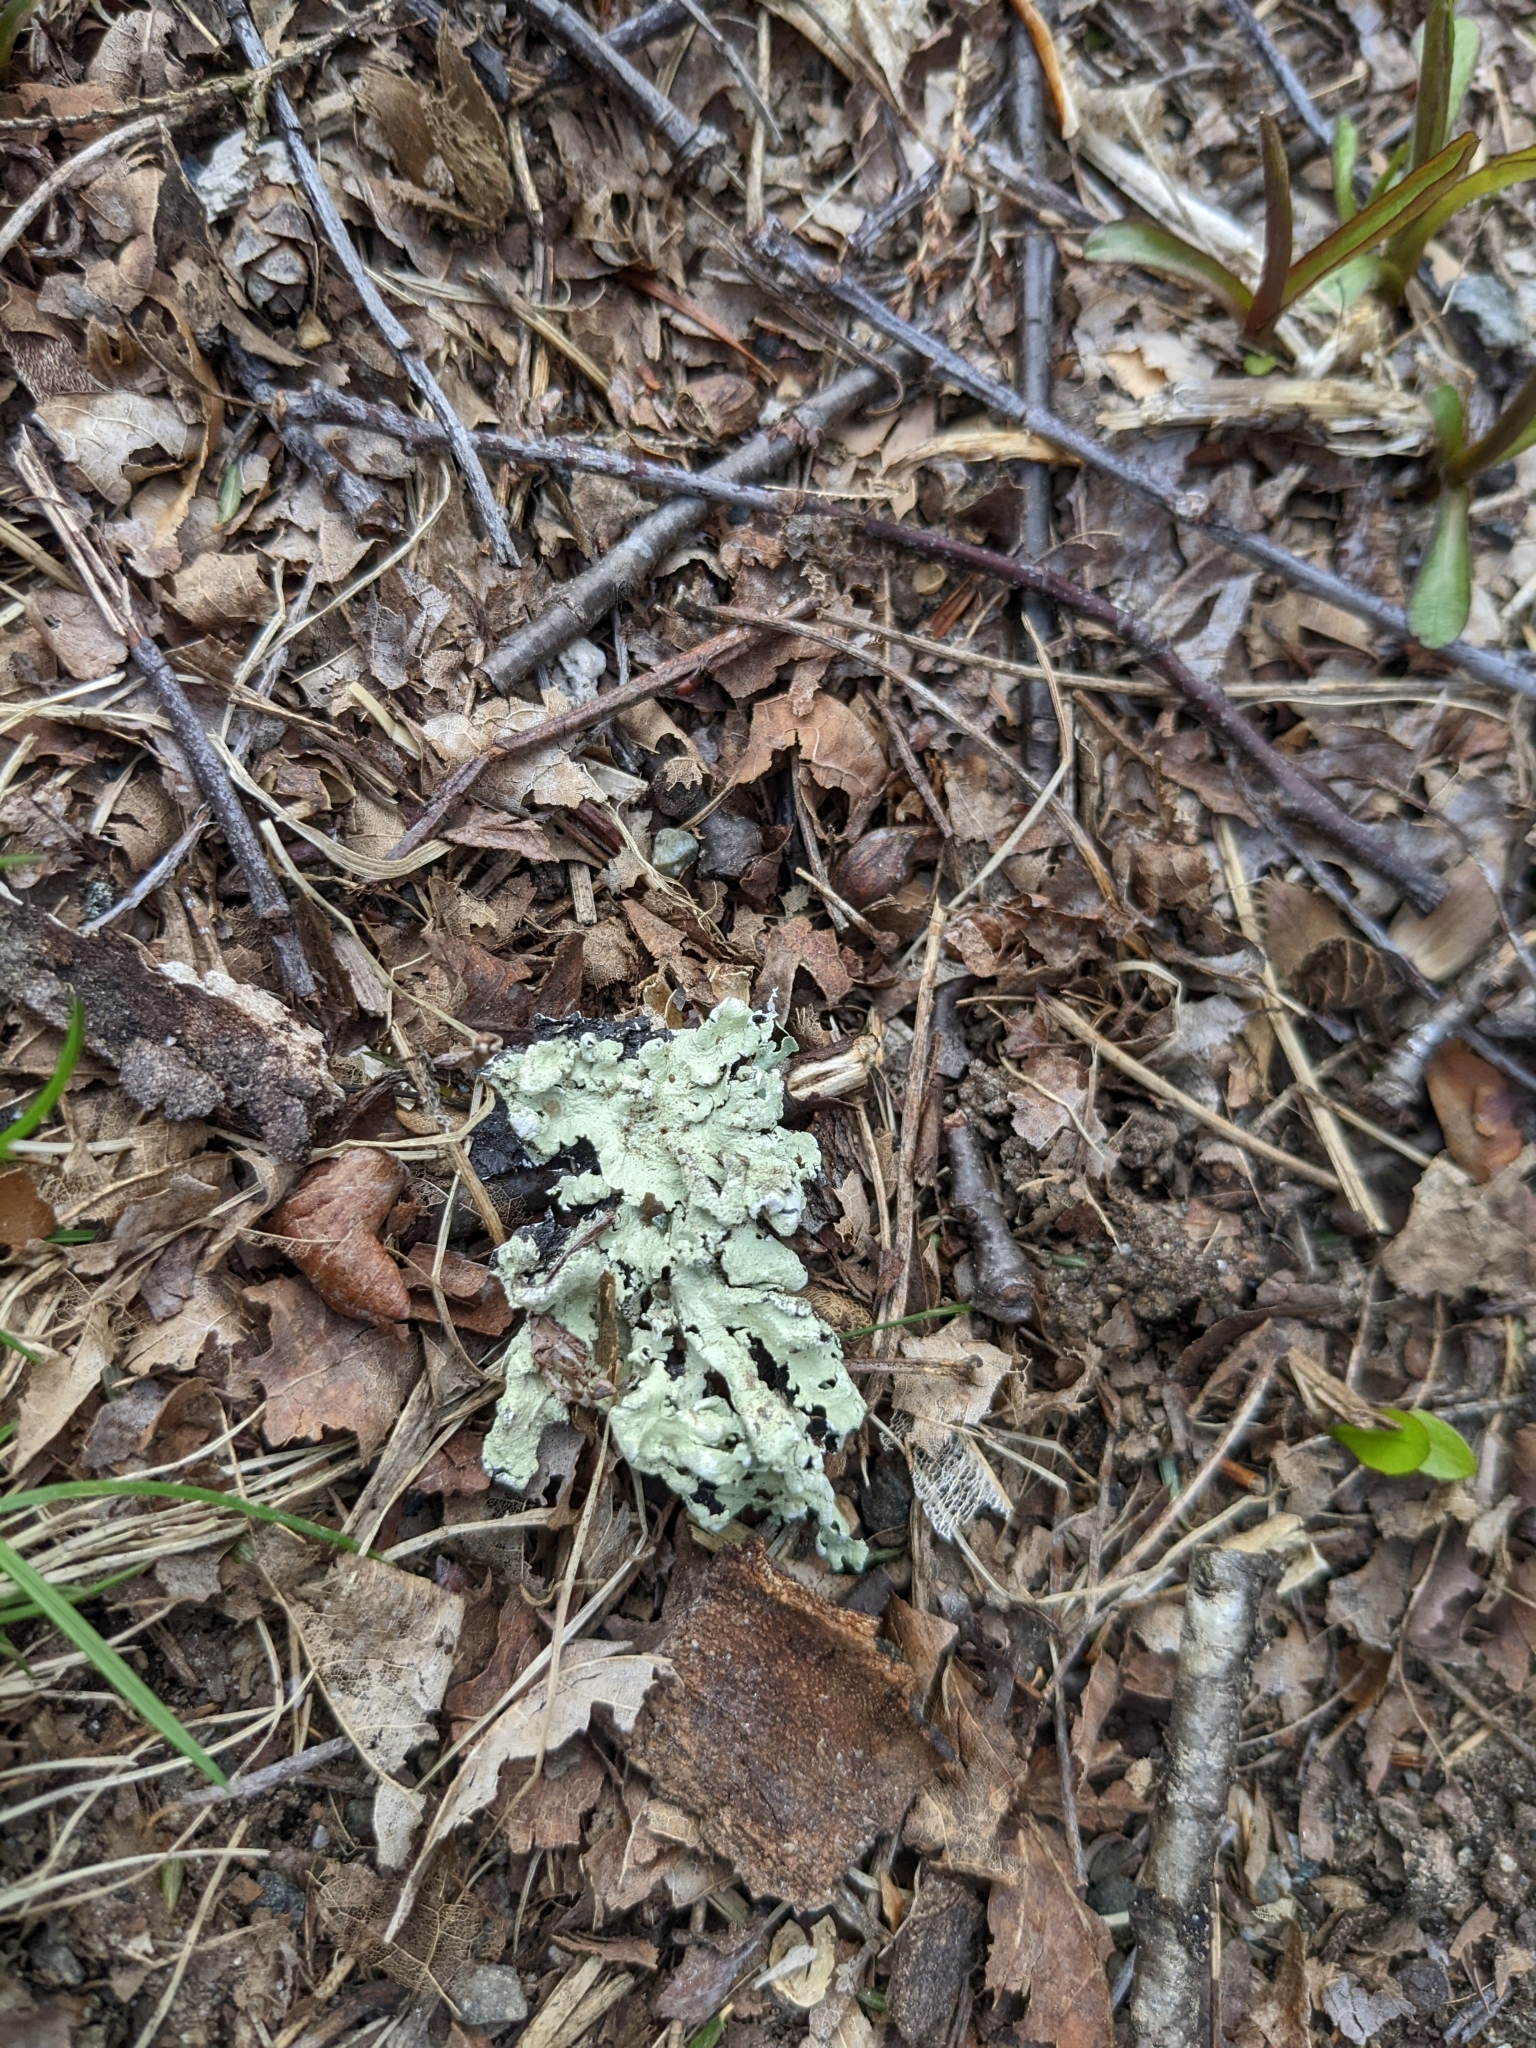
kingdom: Fungi
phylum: Ascomycota
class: Lecanoromycetes
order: Lecanorales
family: Parmeliaceae
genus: Flavoparmelia
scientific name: Flavoparmelia caperata
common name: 40-mile per hour lichen
